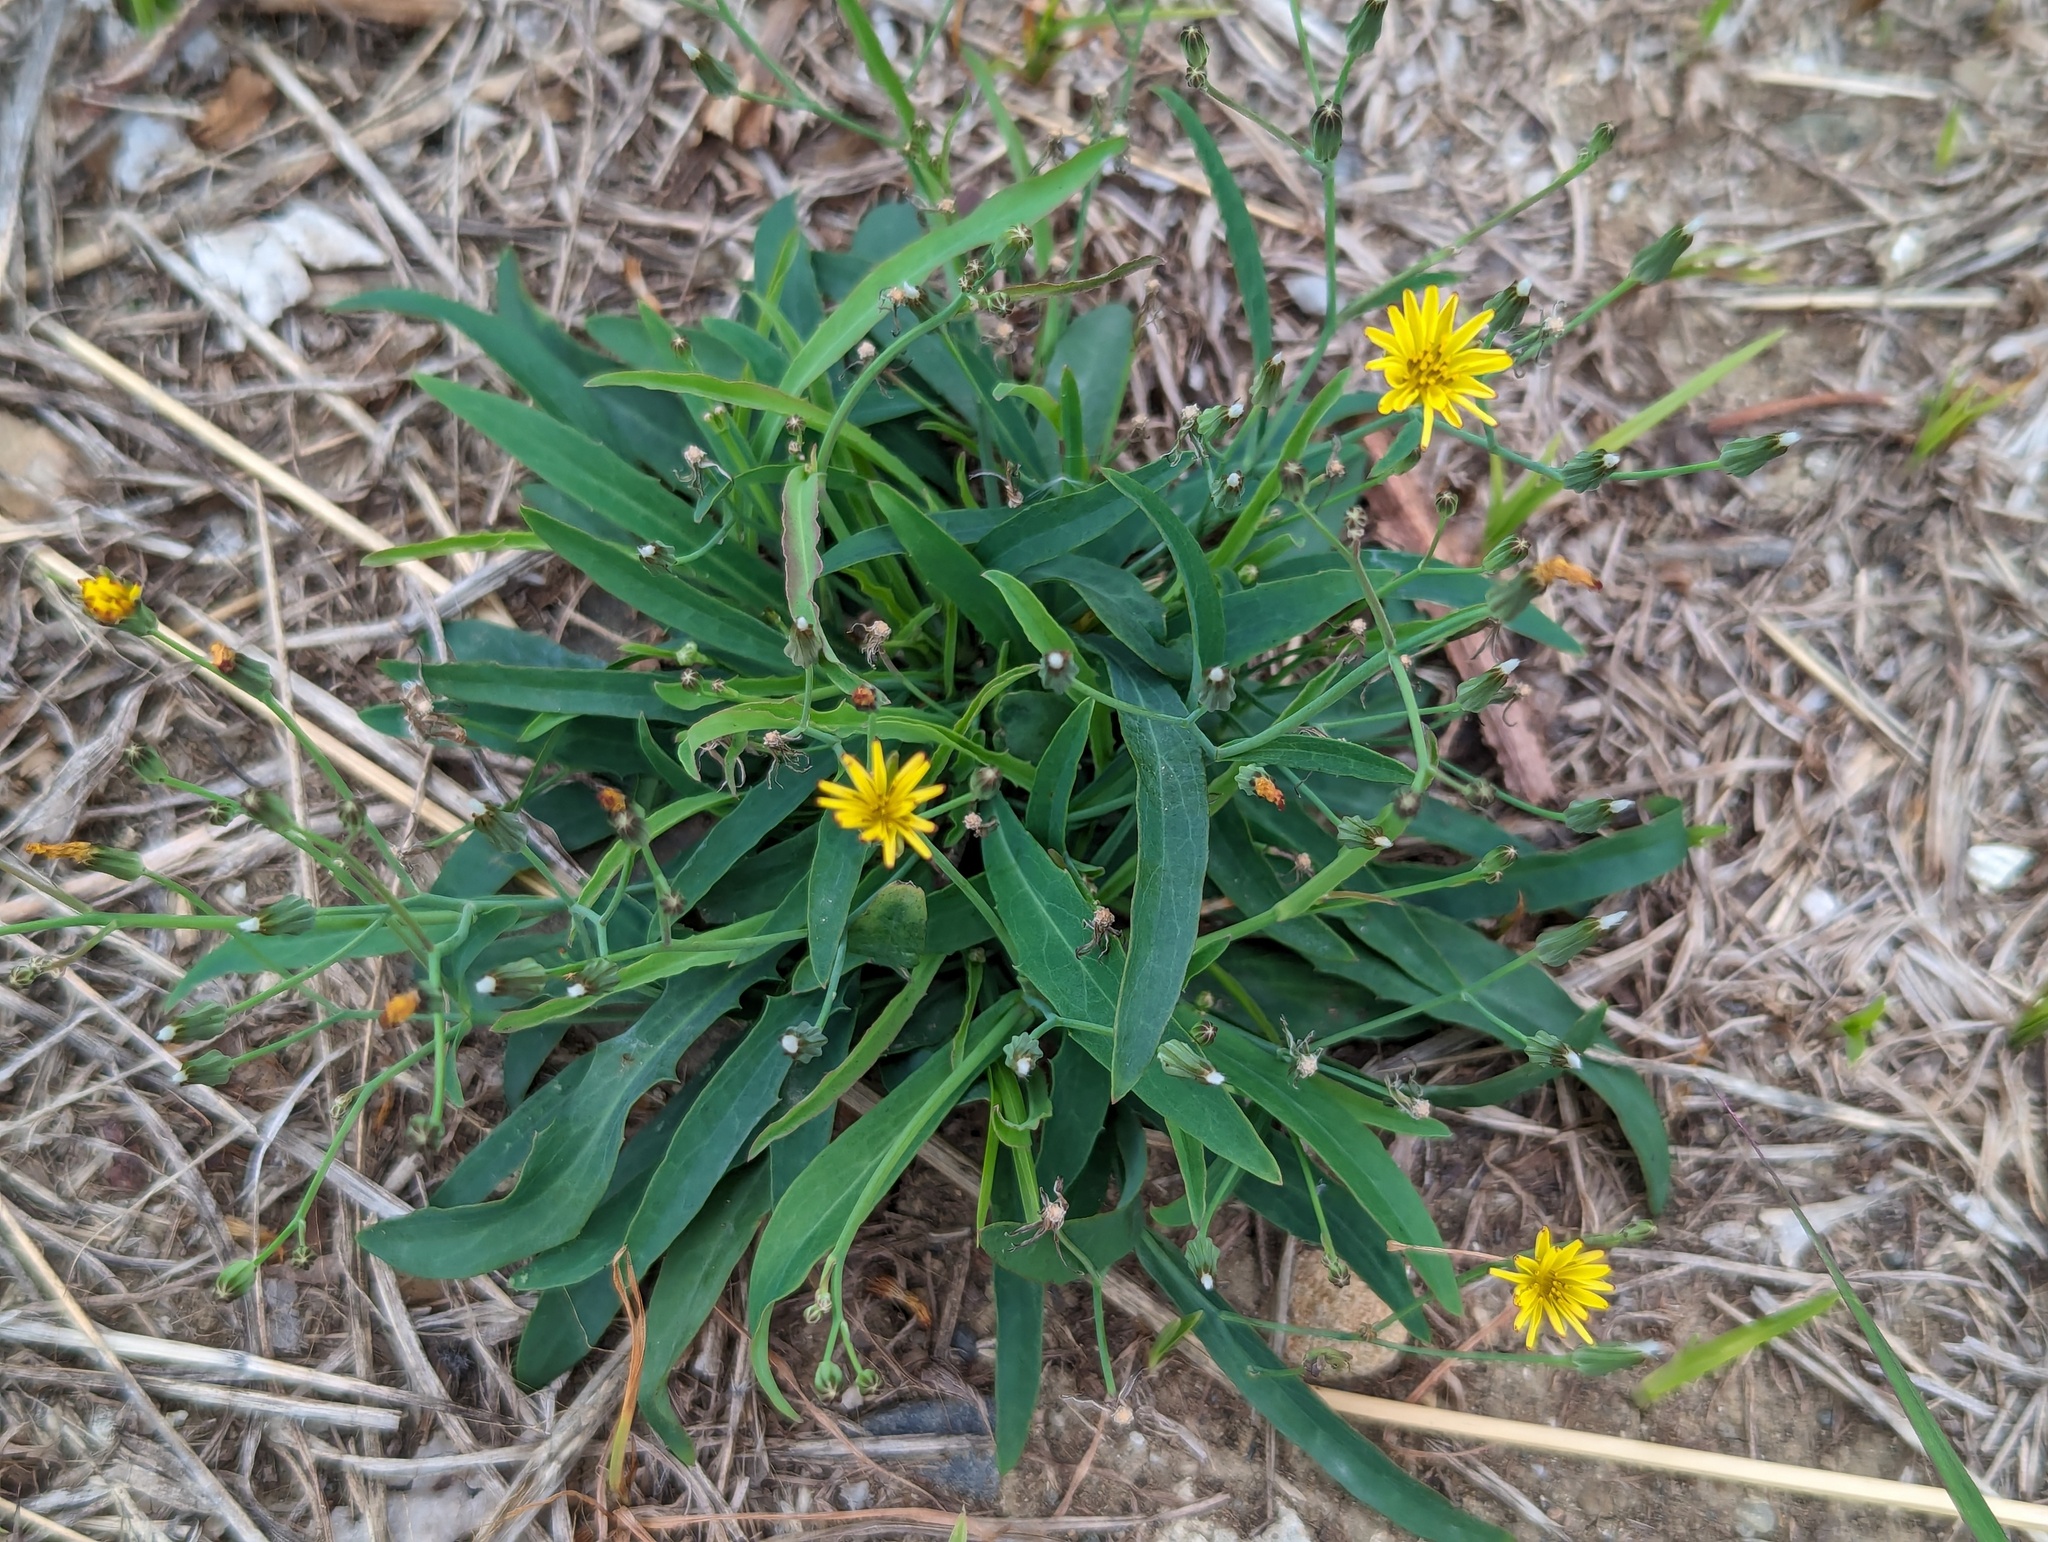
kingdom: Plantae
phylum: Tracheophyta
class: Magnoliopsida
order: Asterales
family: Asteraceae
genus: Ixeris
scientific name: Ixeris chinensis
